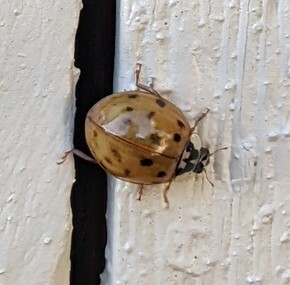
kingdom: Animalia
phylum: Arthropoda
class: Insecta
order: Coleoptera
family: Coccinellidae
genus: Harmonia
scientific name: Harmonia axyridis
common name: Harlequin ladybird
